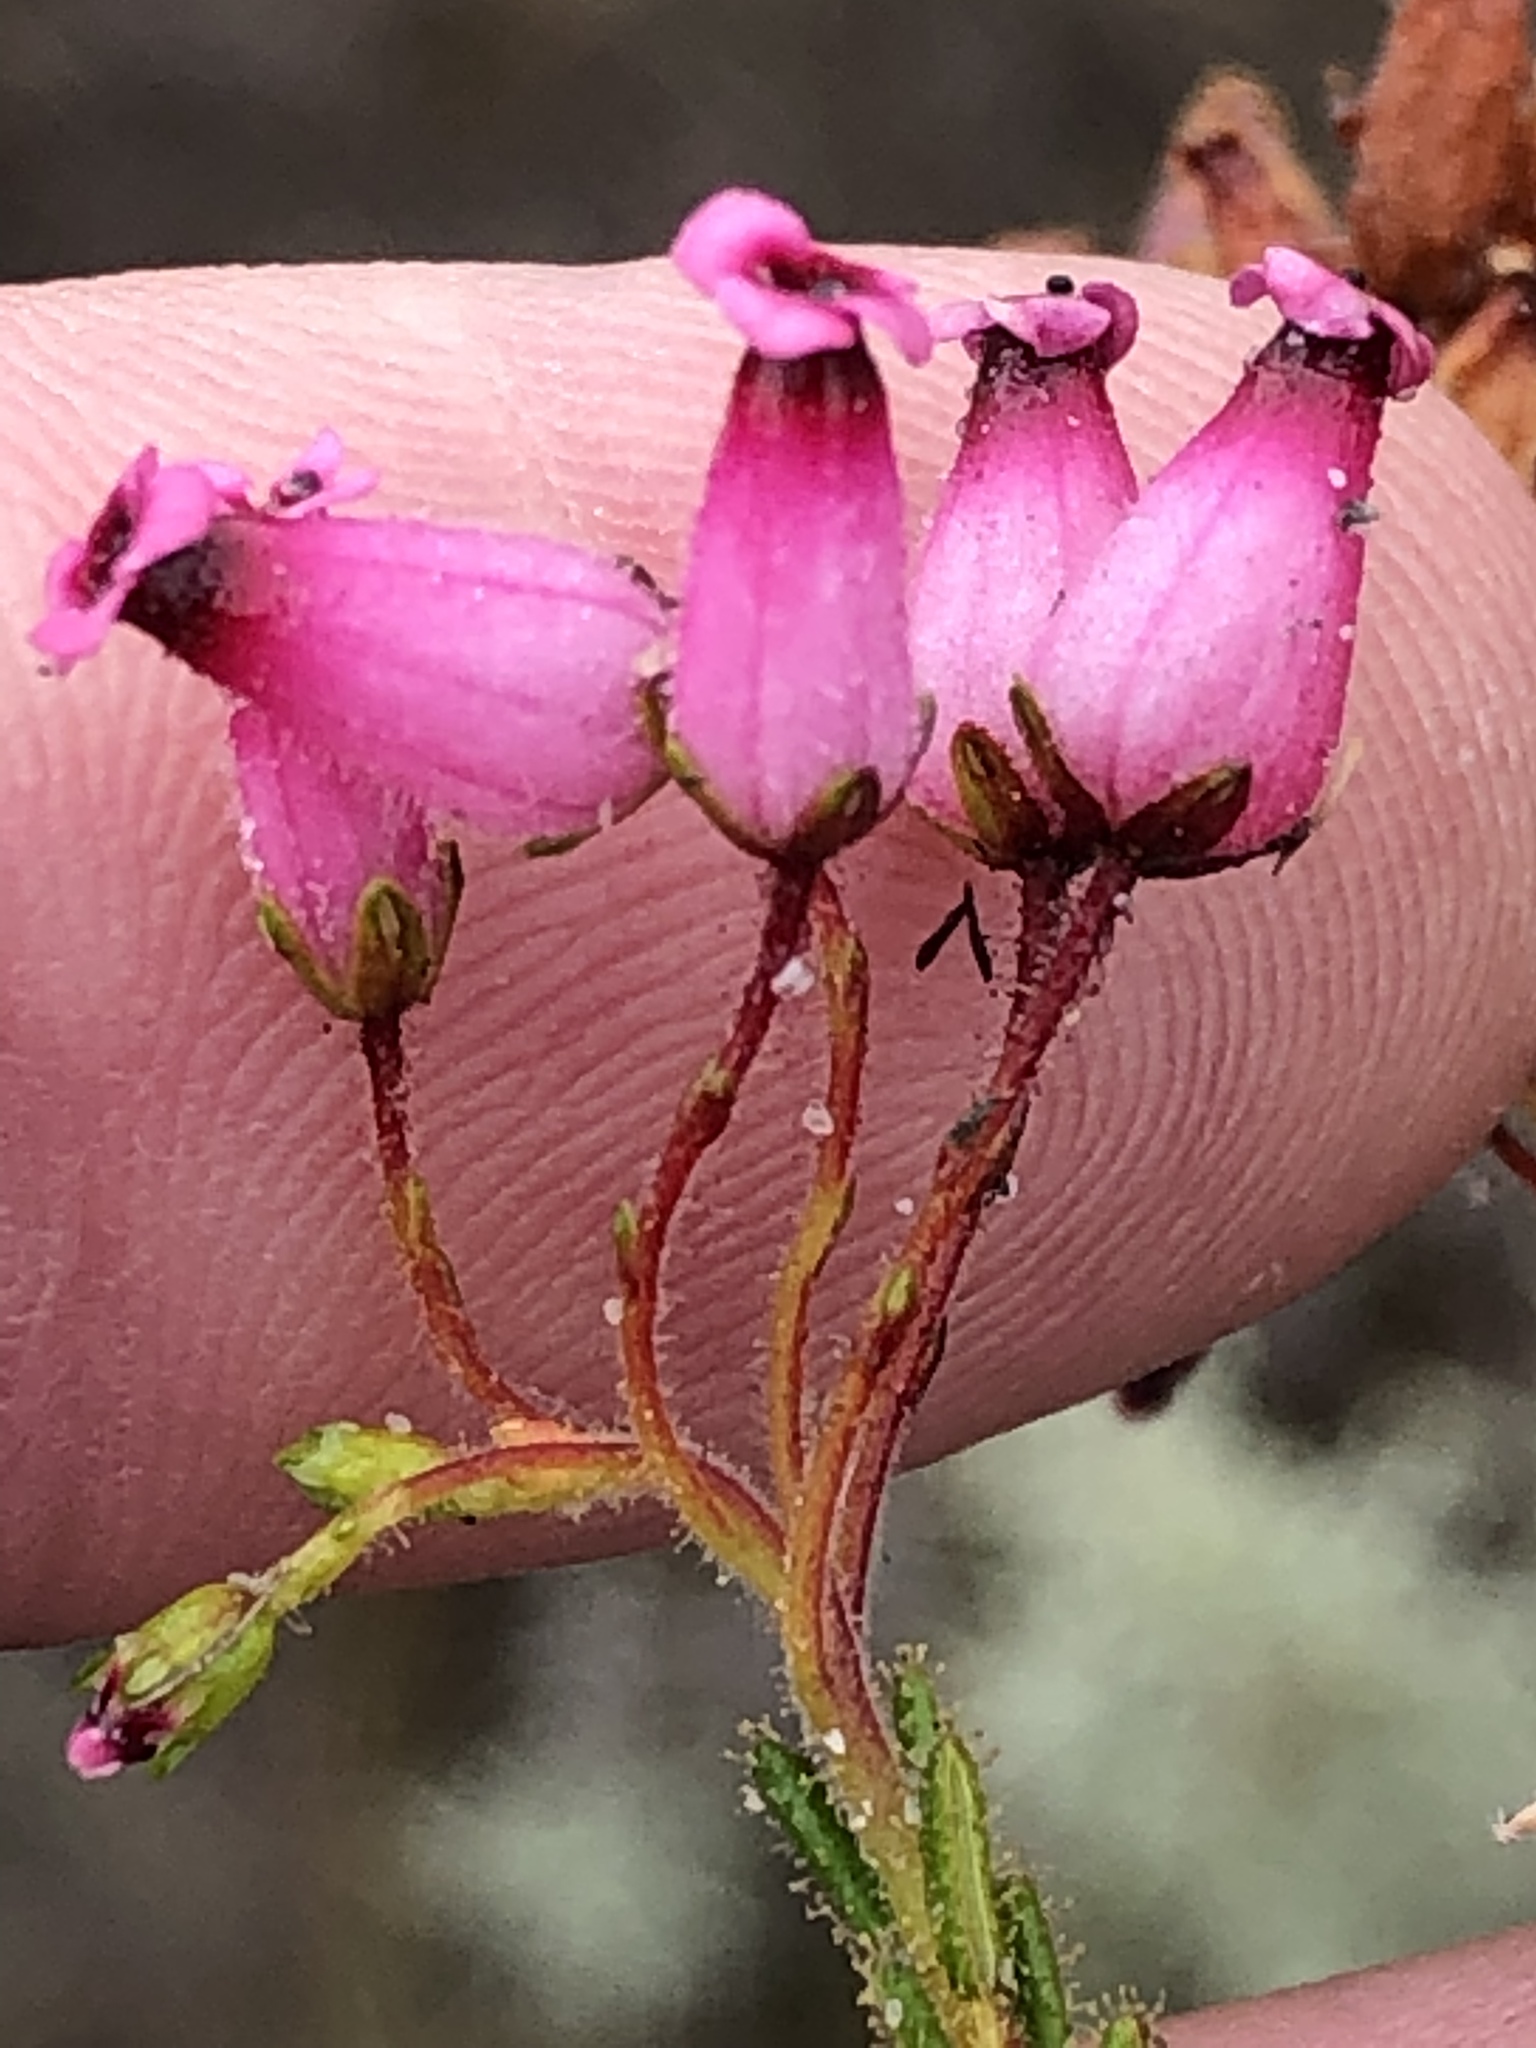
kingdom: Plantae
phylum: Tracheophyta
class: Magnoliopsida
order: Ericales
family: Ericaceae
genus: Erica
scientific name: Erica glutinosa
